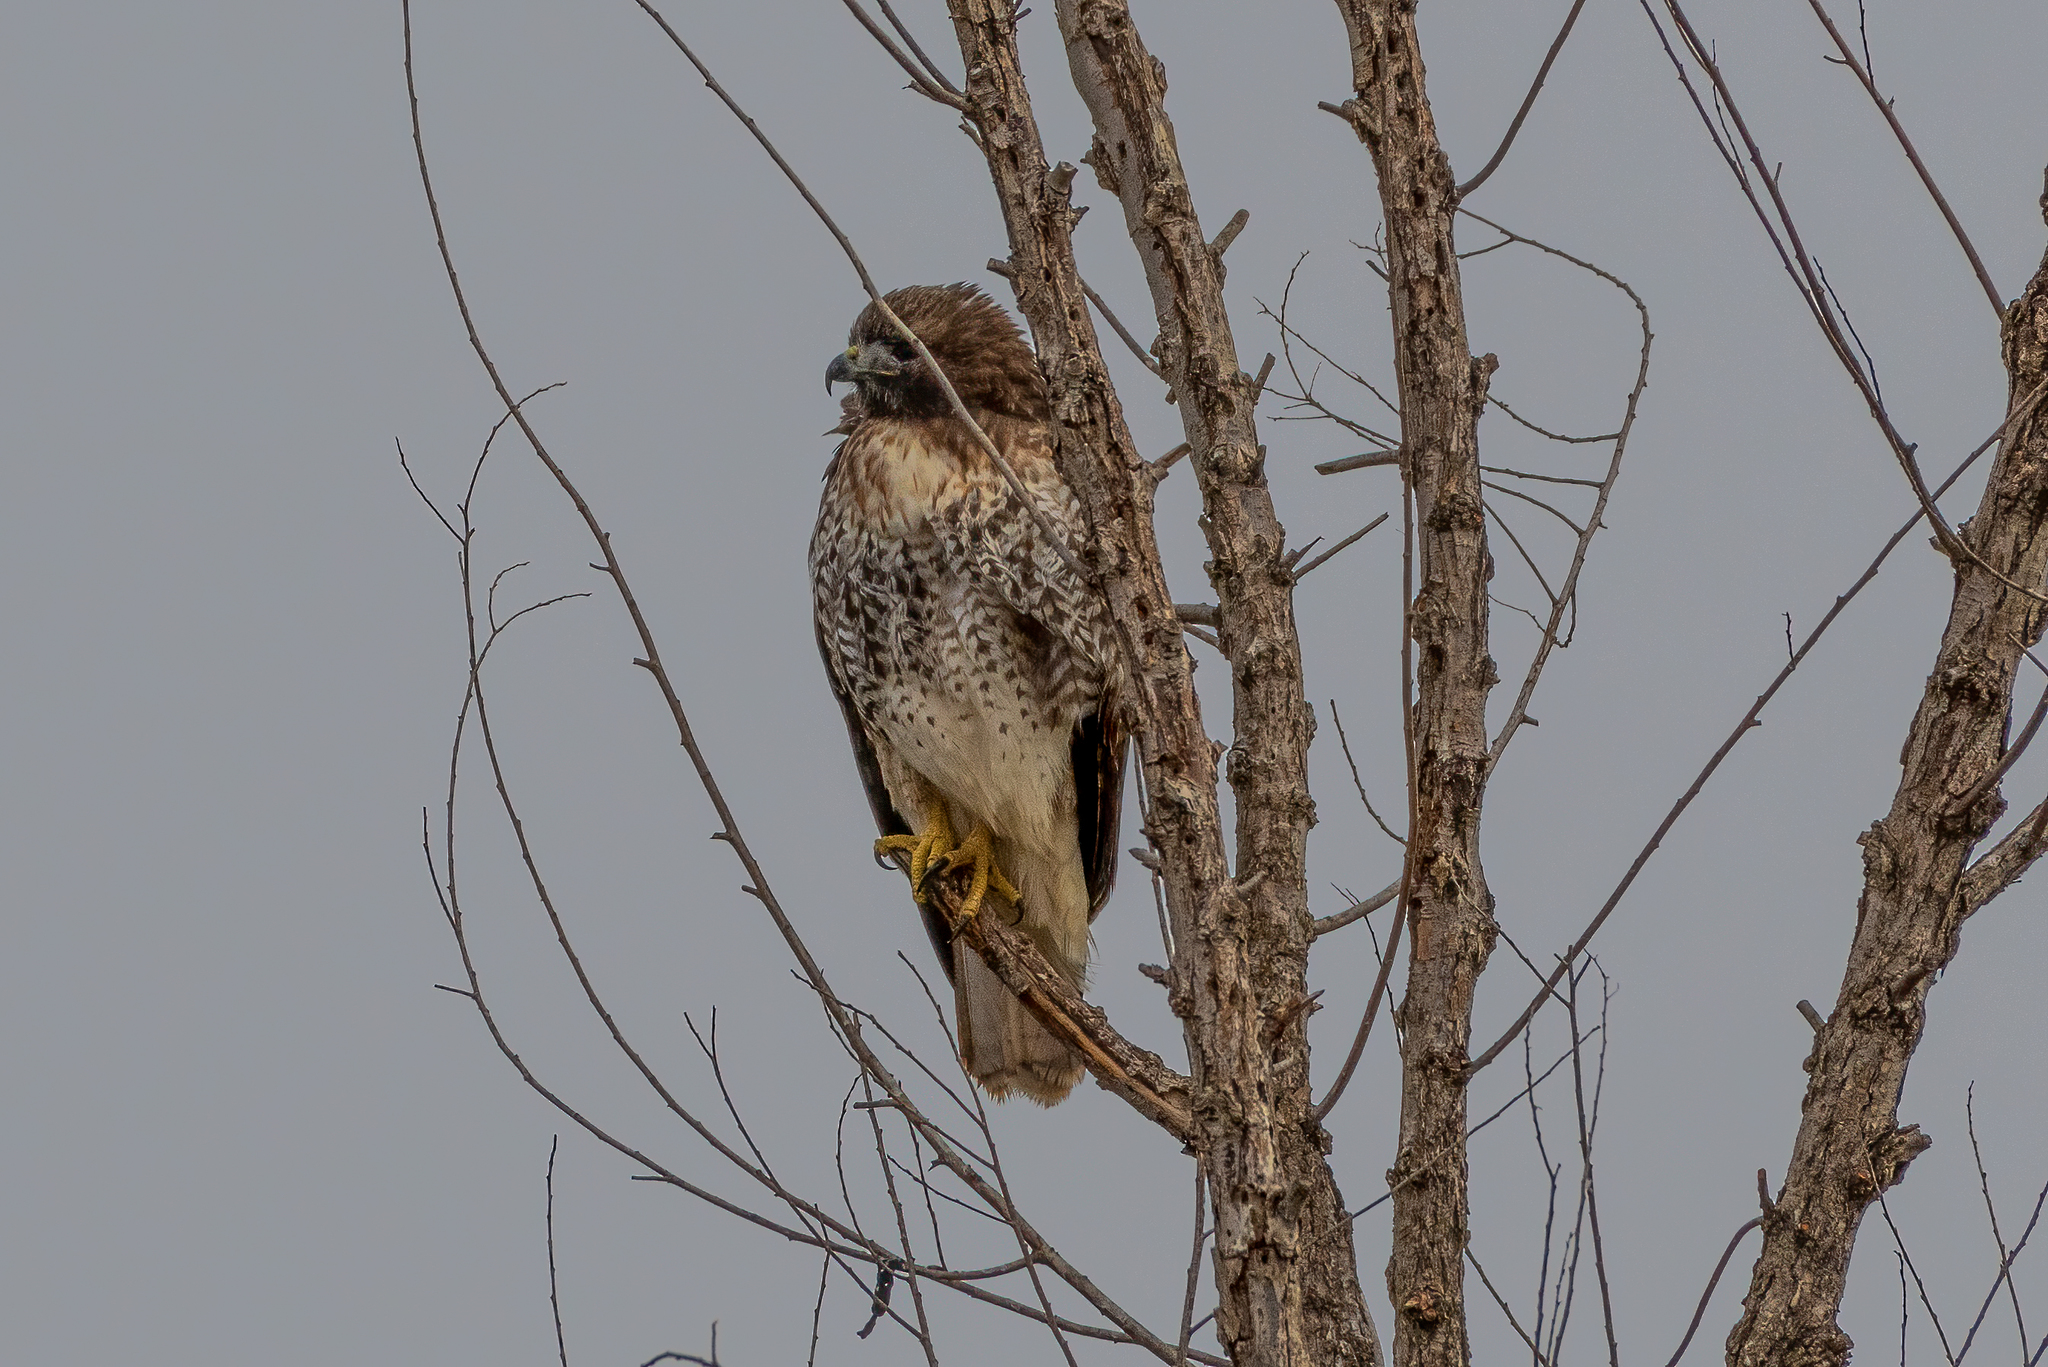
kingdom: Animalia
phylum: Chordata
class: Aves
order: Accipitriformes
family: Accipitridae
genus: Buteo
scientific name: Buteo jamaicensis
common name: Red-tailed hawk
